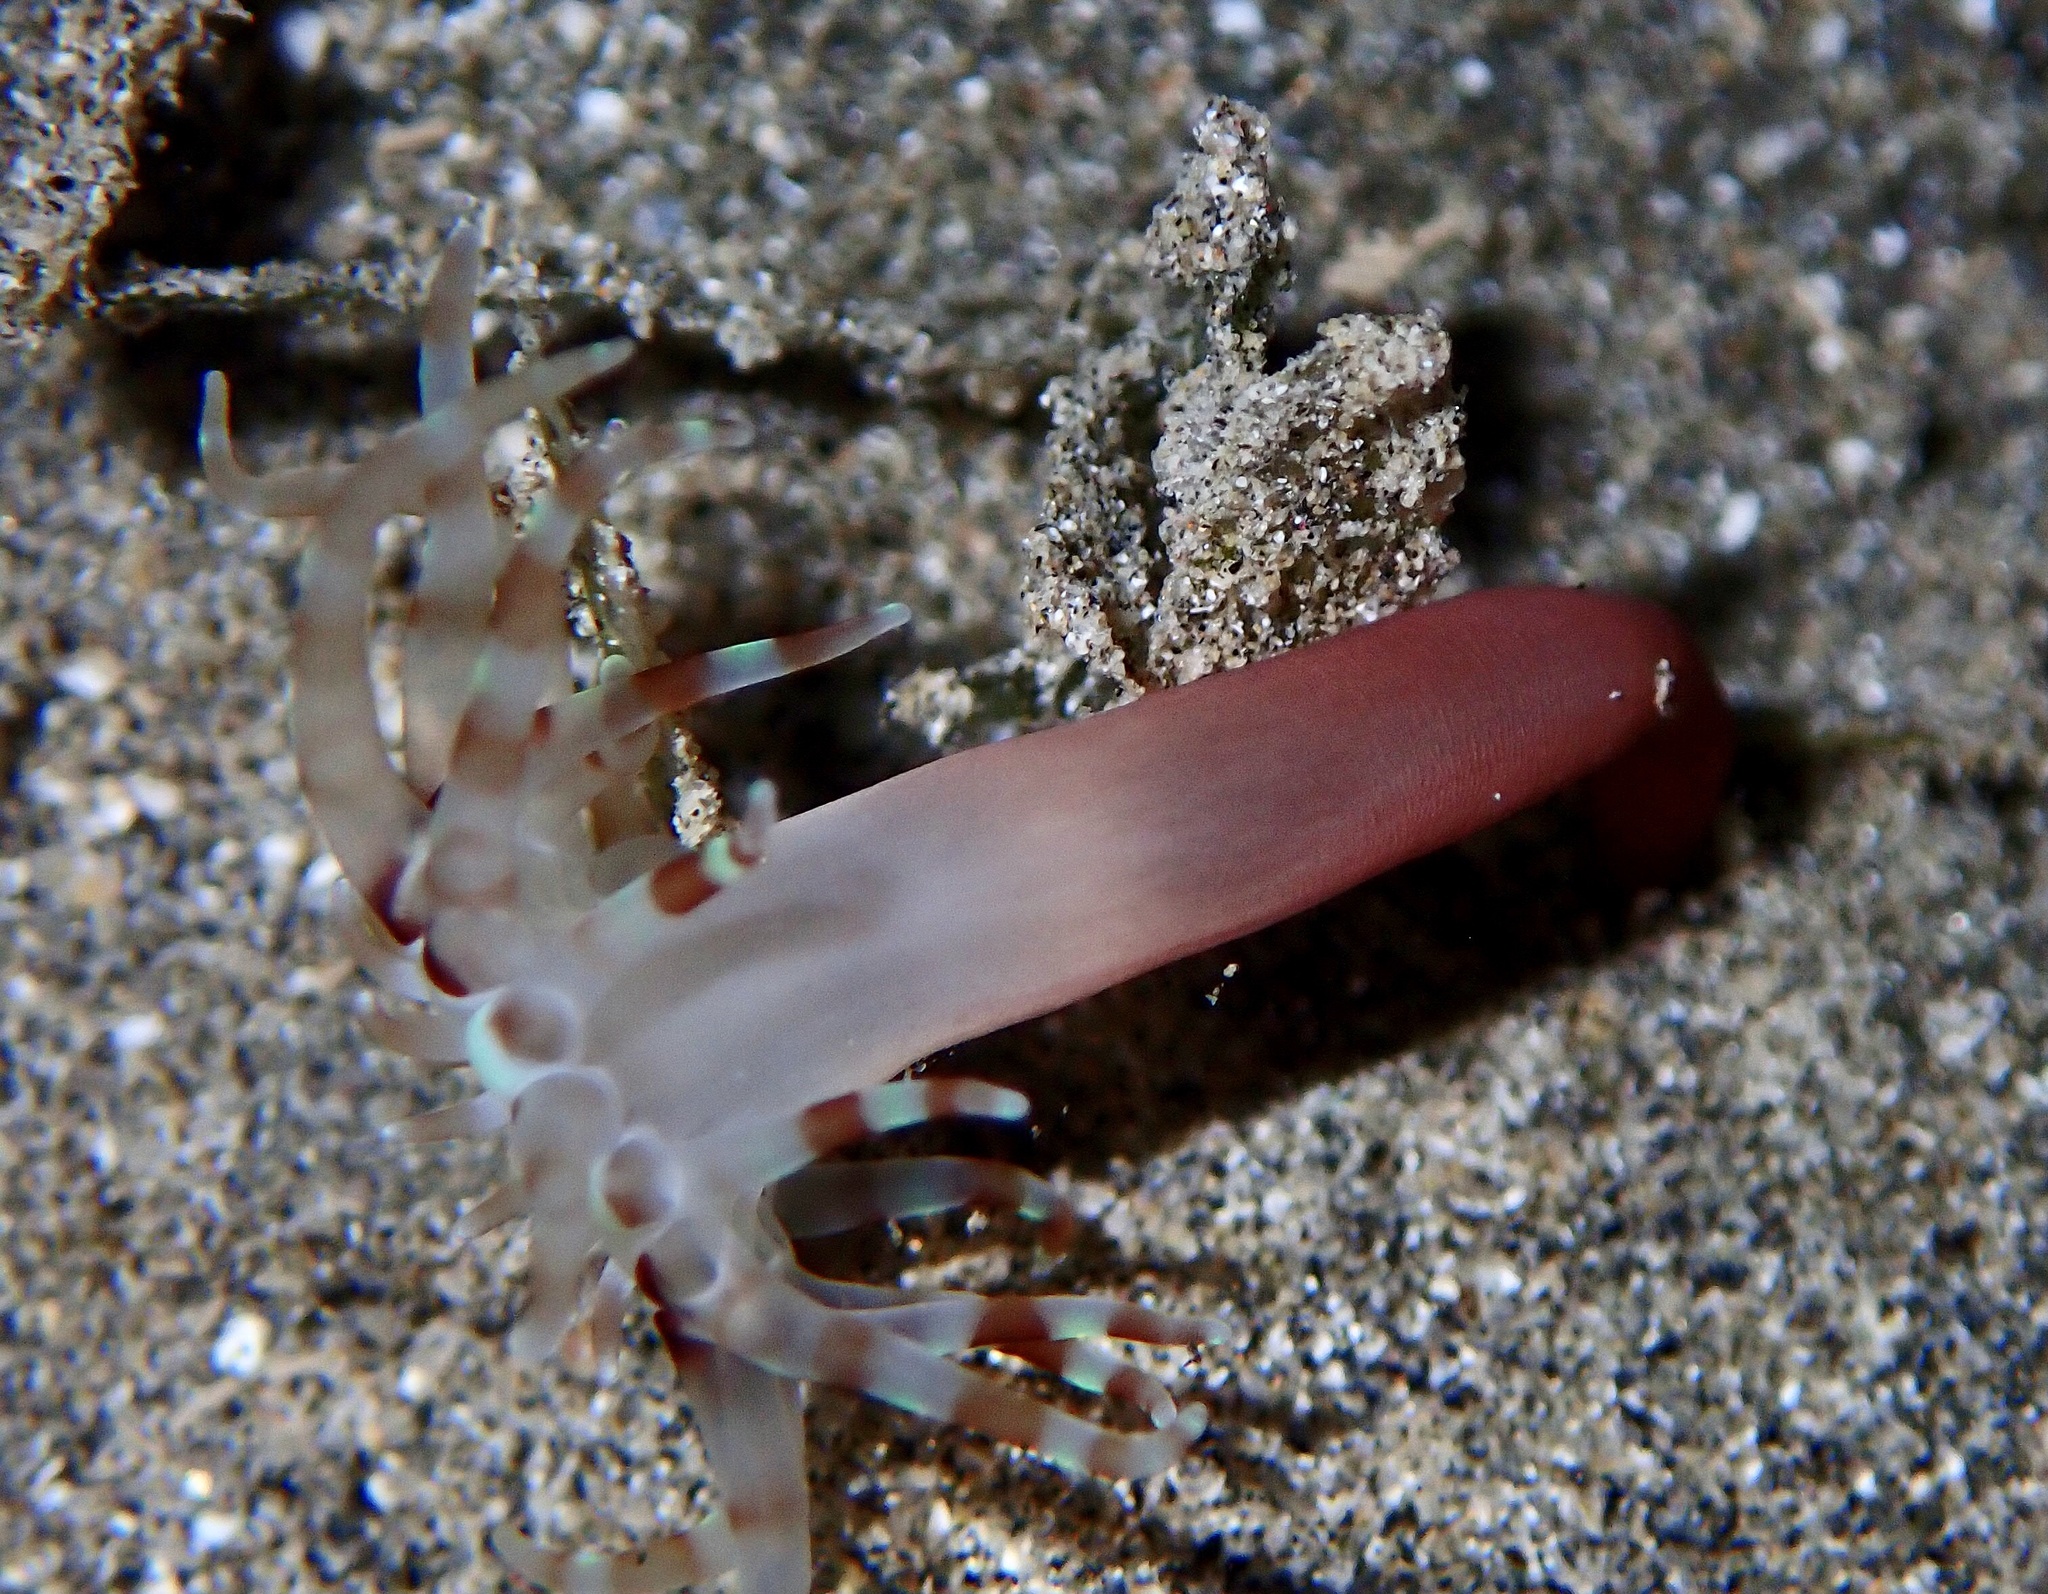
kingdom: Animalia
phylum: Cnidaria
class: Anthozoa
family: Arachnactidae
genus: Arachnanthus
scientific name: Arachnanthus lilith
